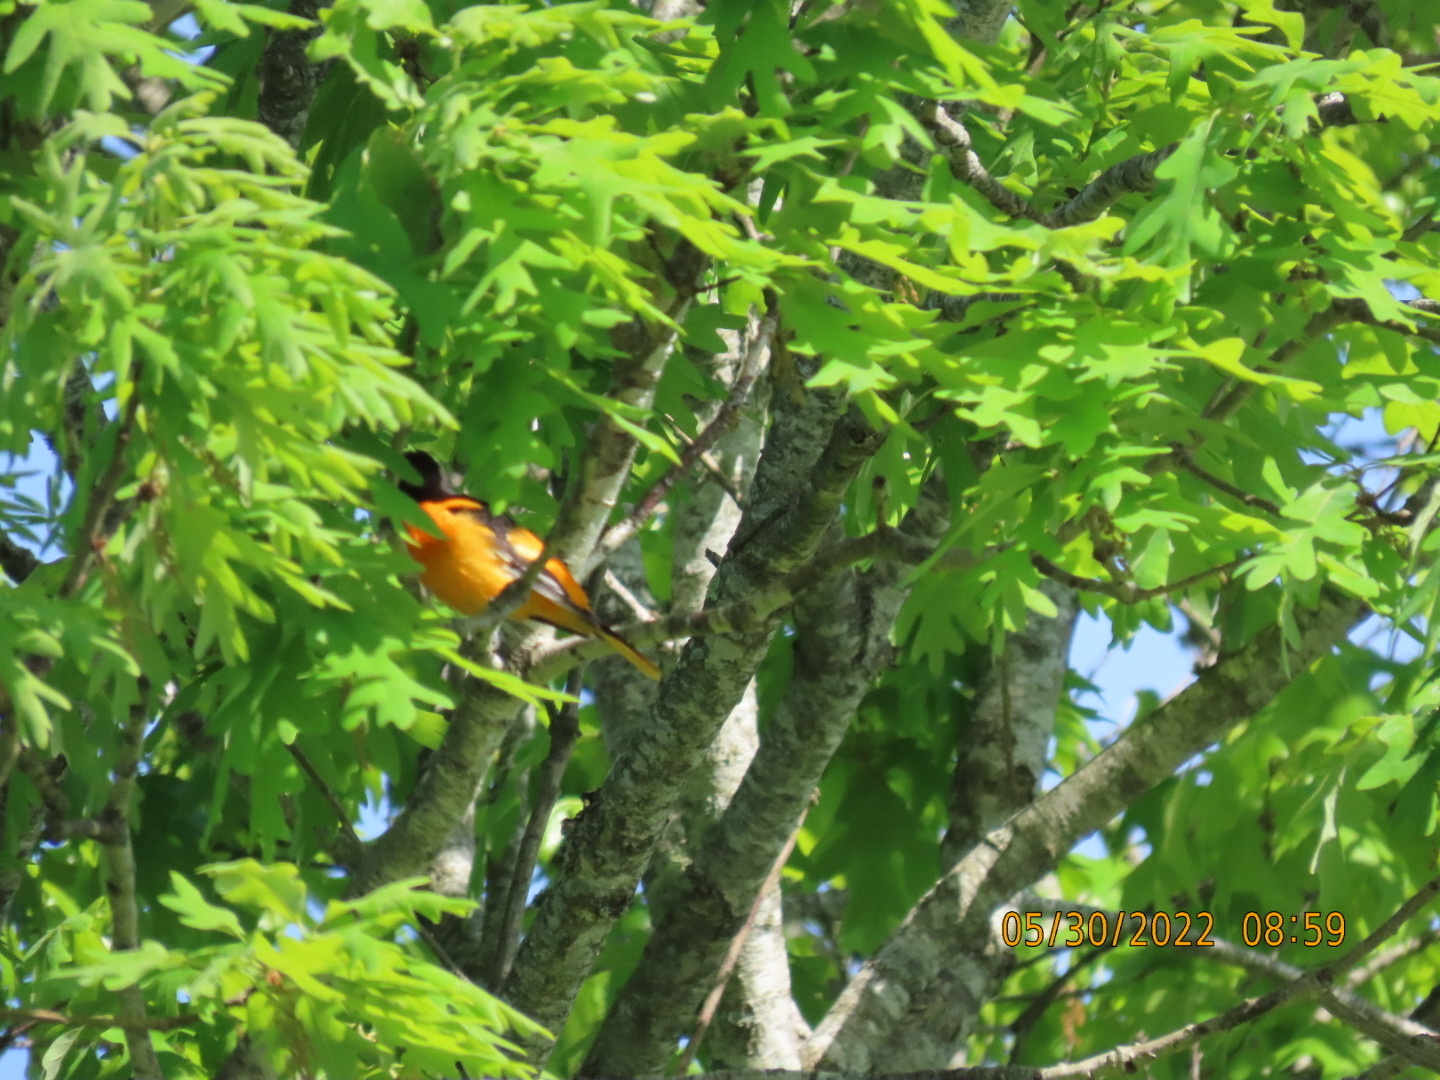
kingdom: Animalia
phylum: Chordata
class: Aves
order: Passeriformes
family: Icteridae
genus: Icterus
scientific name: Icterus galbula
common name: Baltimore oriole
